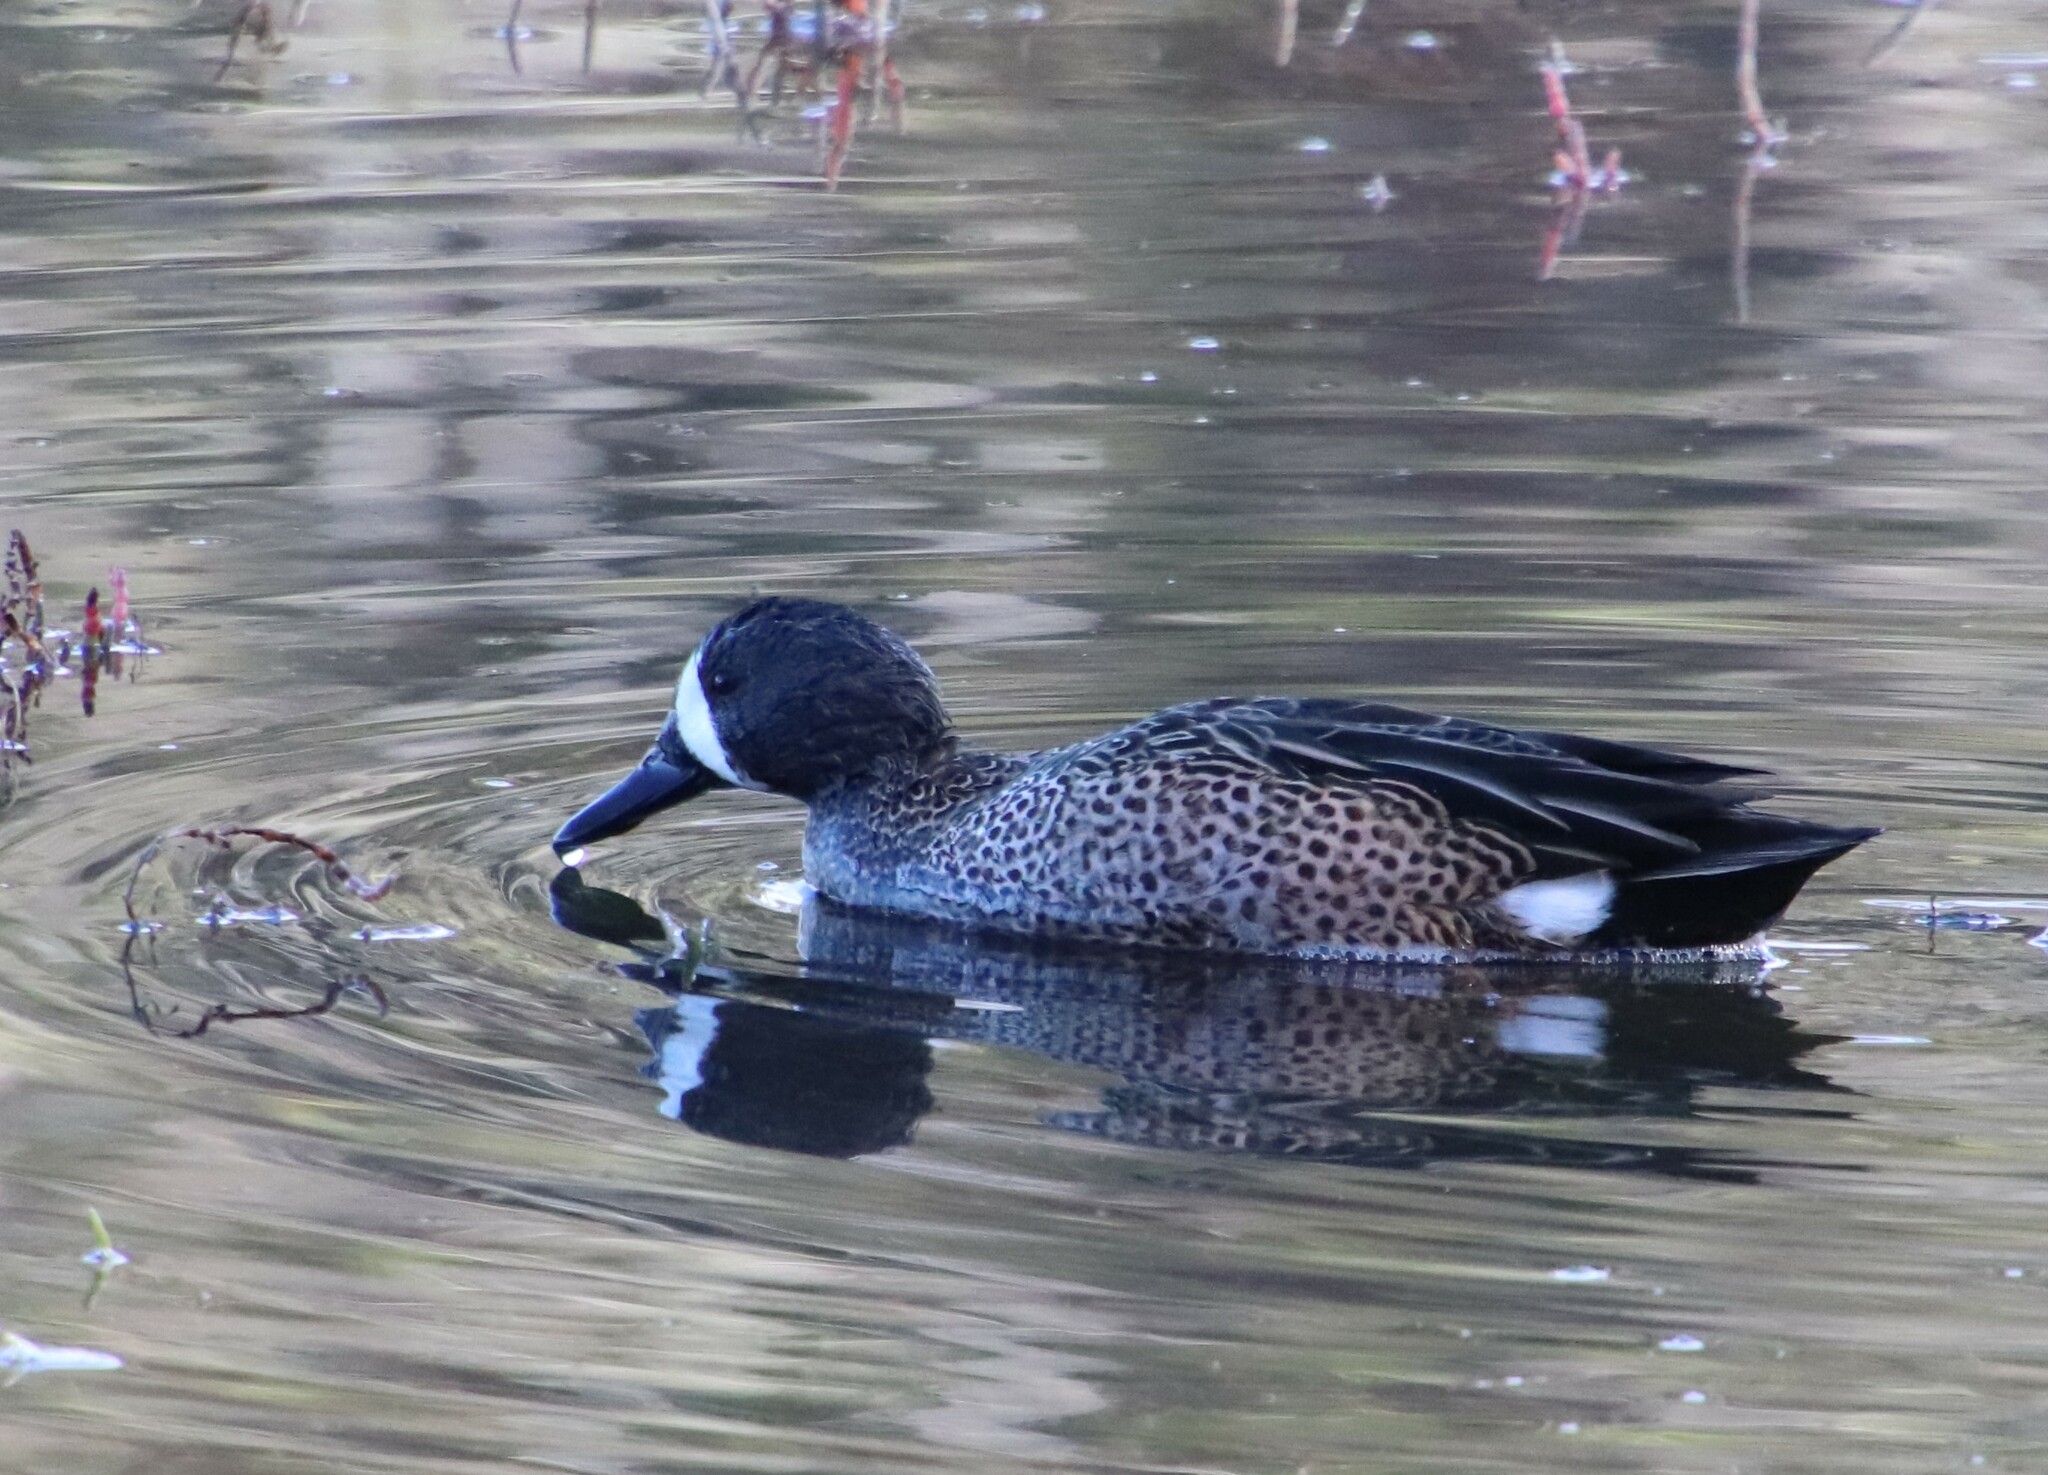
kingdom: Animalia
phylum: Chordata
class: Aves
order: Anseriformes
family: Anatidae
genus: Spatula
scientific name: Spatula discors
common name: Blue-winged teal
